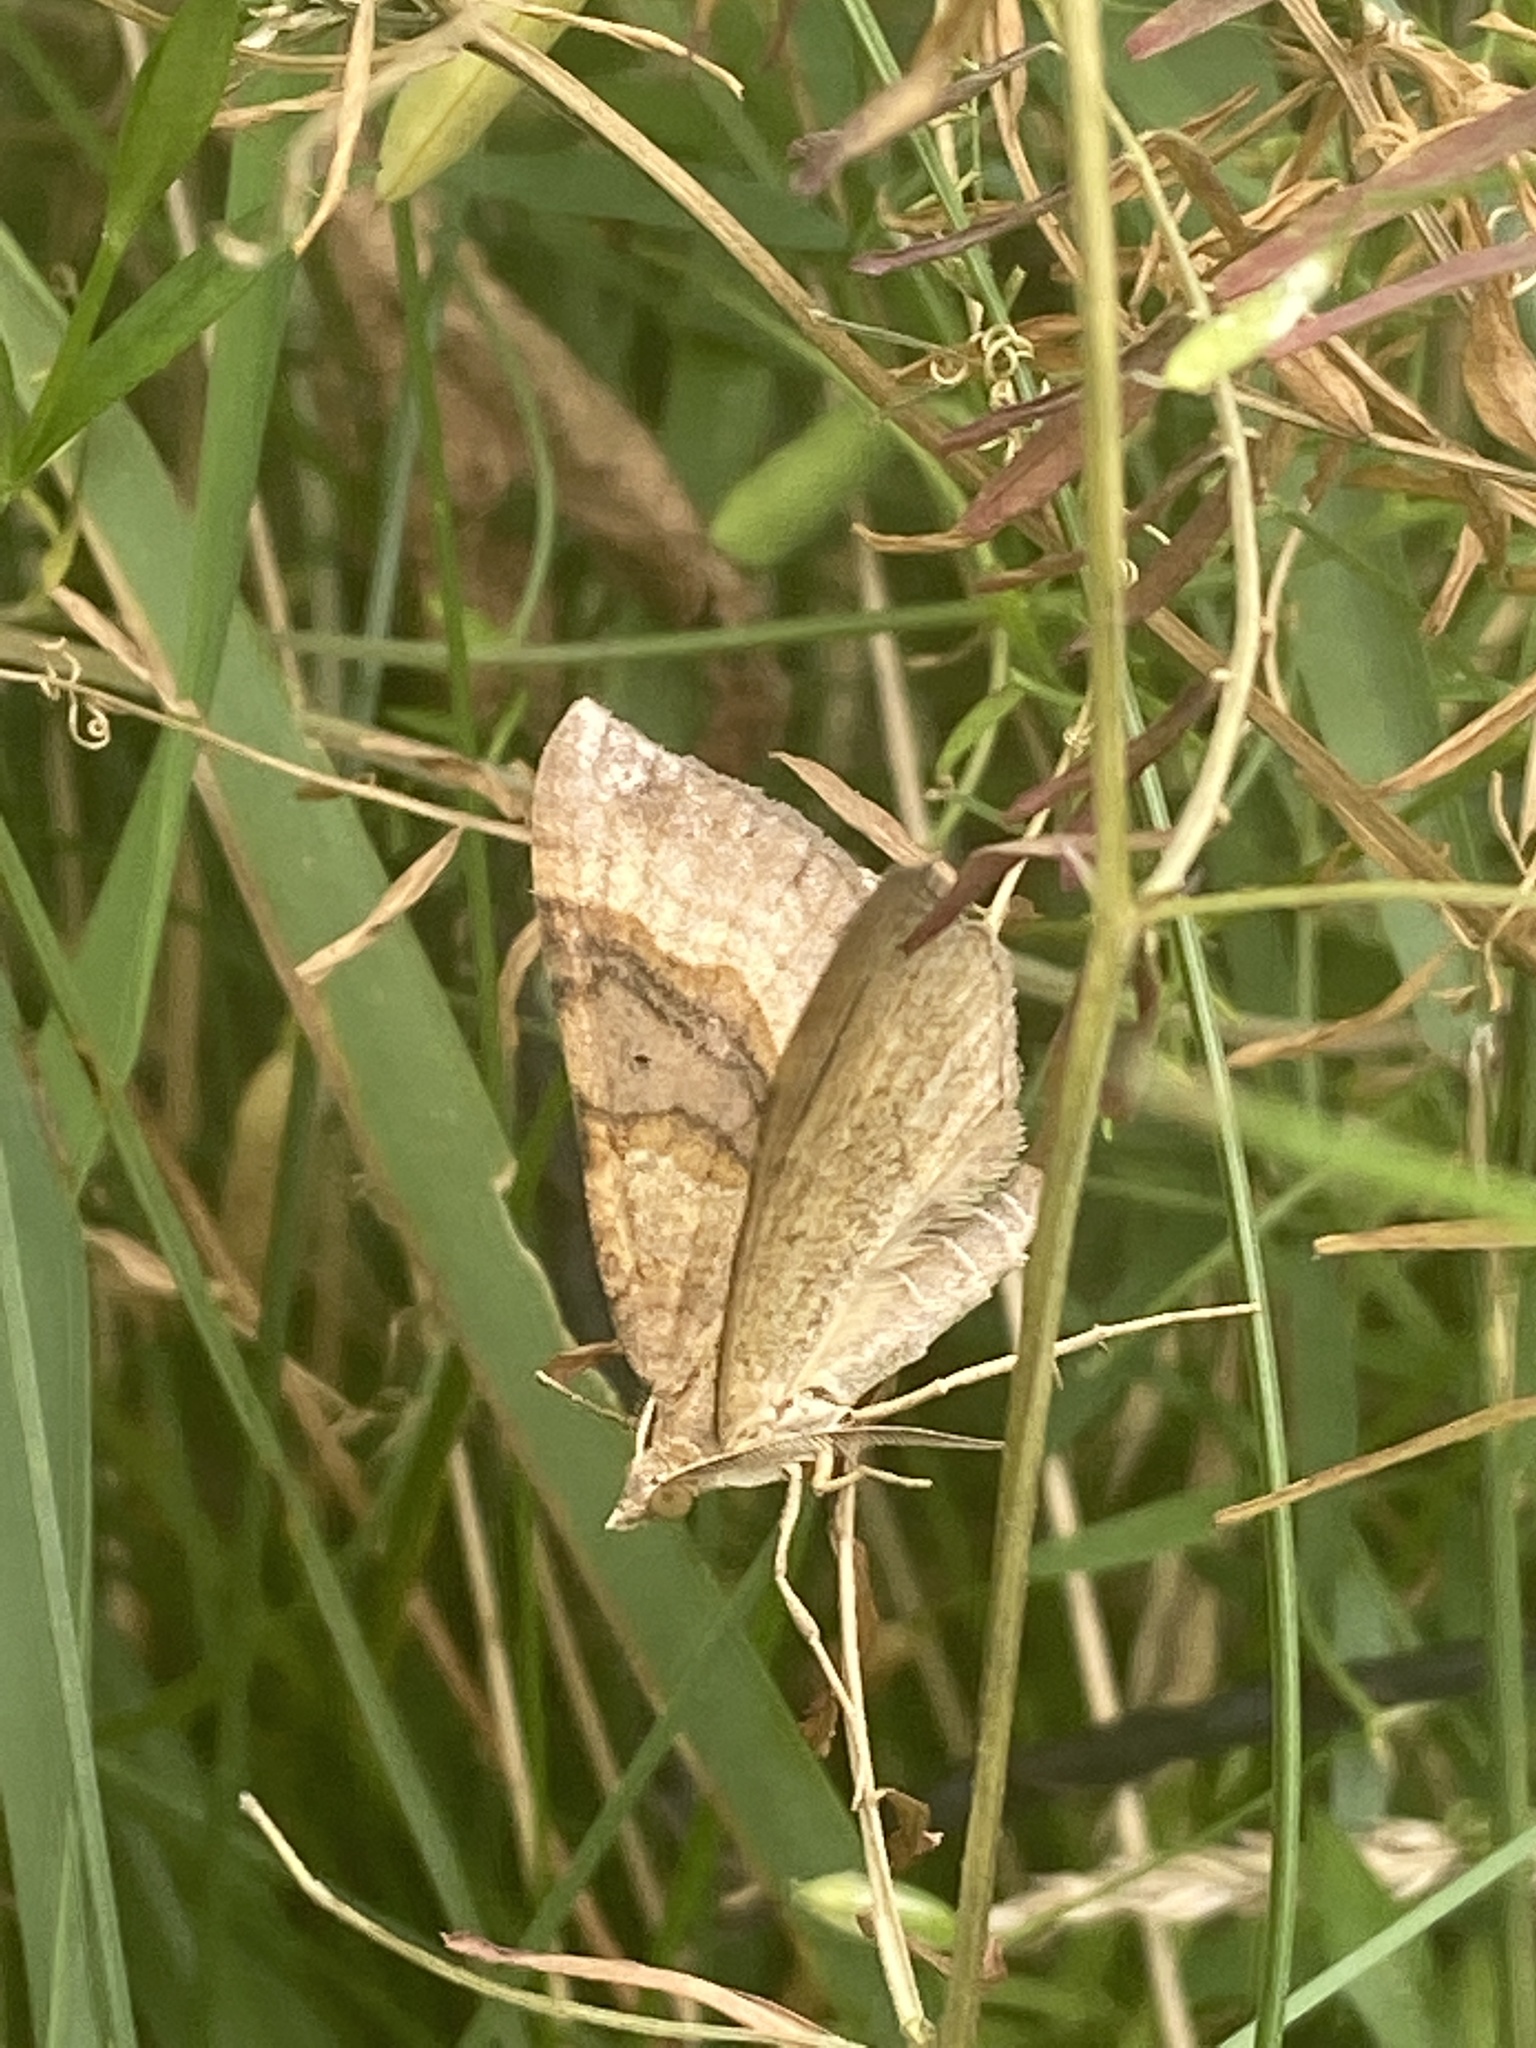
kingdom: Animalia
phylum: Arthropoda
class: Insecta
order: Lepidoptera
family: Geometridae
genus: Scotopteryx
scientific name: Scotopteryx chenopodiata
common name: Shaded broad-bar
